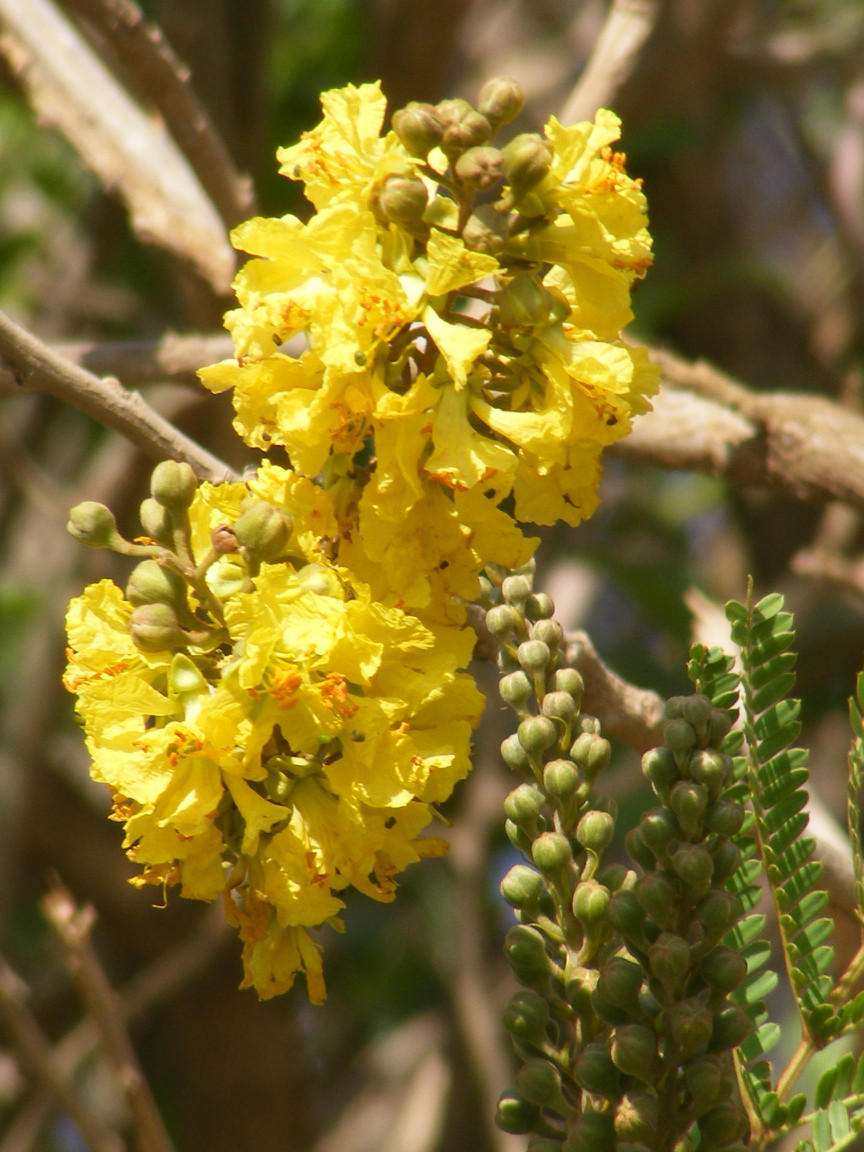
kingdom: Plantae
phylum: Tracheophyta
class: Magnoliopsida
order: Fabales
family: Fabaceae
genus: Peltophorum
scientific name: Peltophorum africanum
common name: African black wattle
